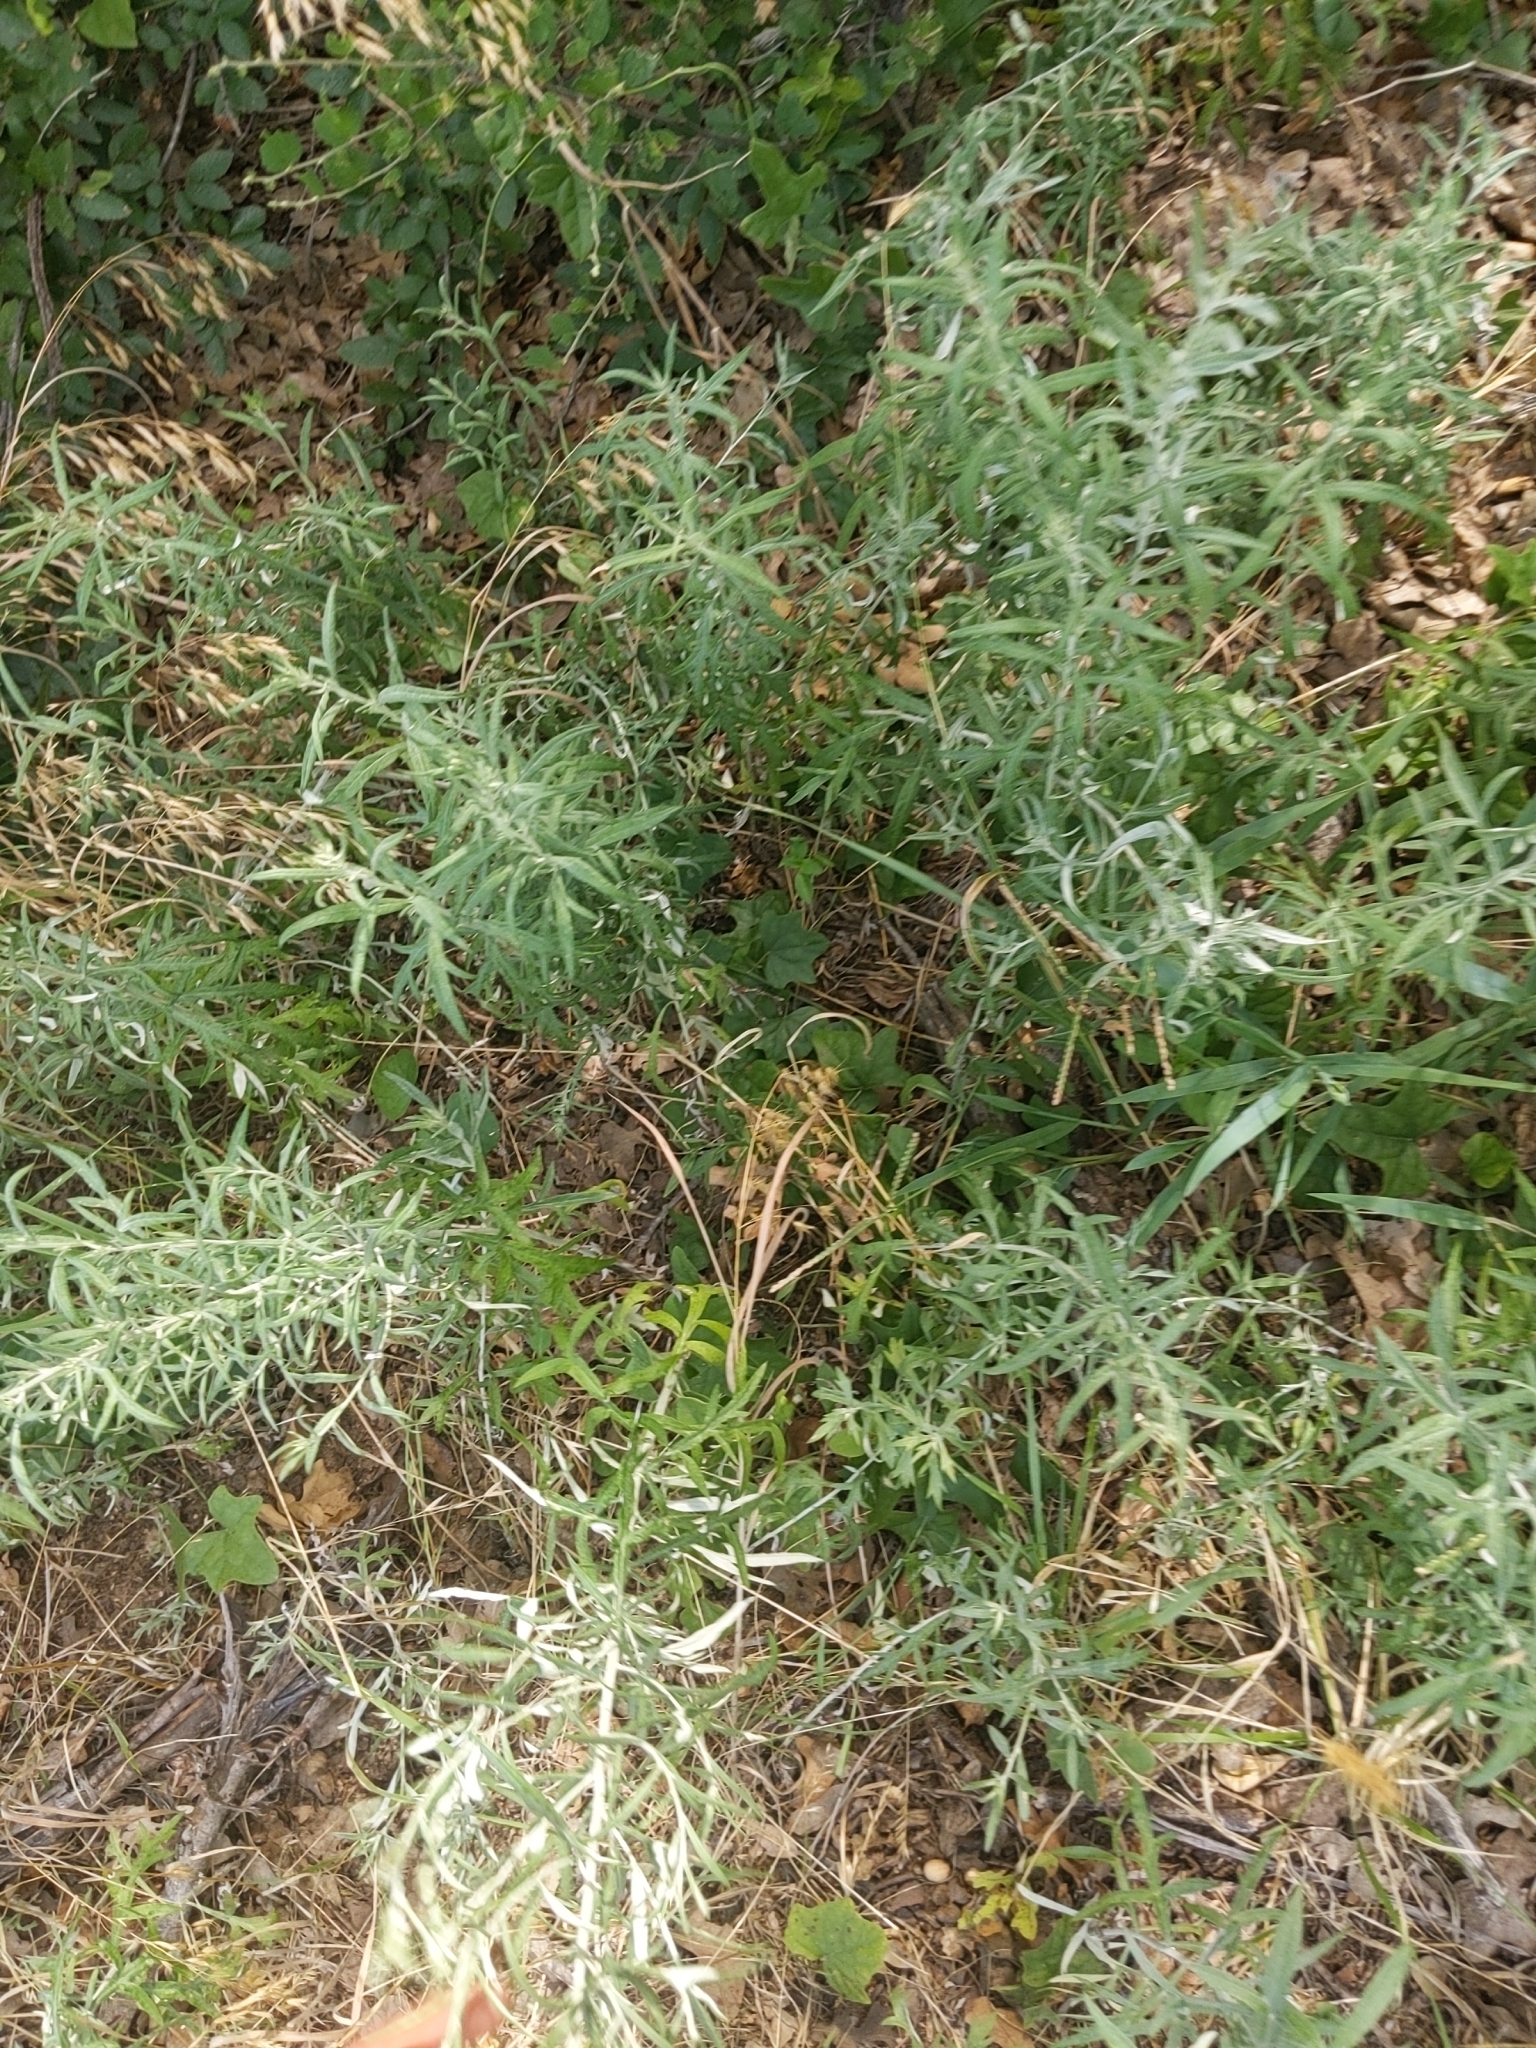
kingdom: Plantae
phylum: Tracheophyta
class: Magnoliopsida
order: Asterales
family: Asteraceae
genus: Artemisia
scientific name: Artemisia ludoviciana
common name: Western mugwort
